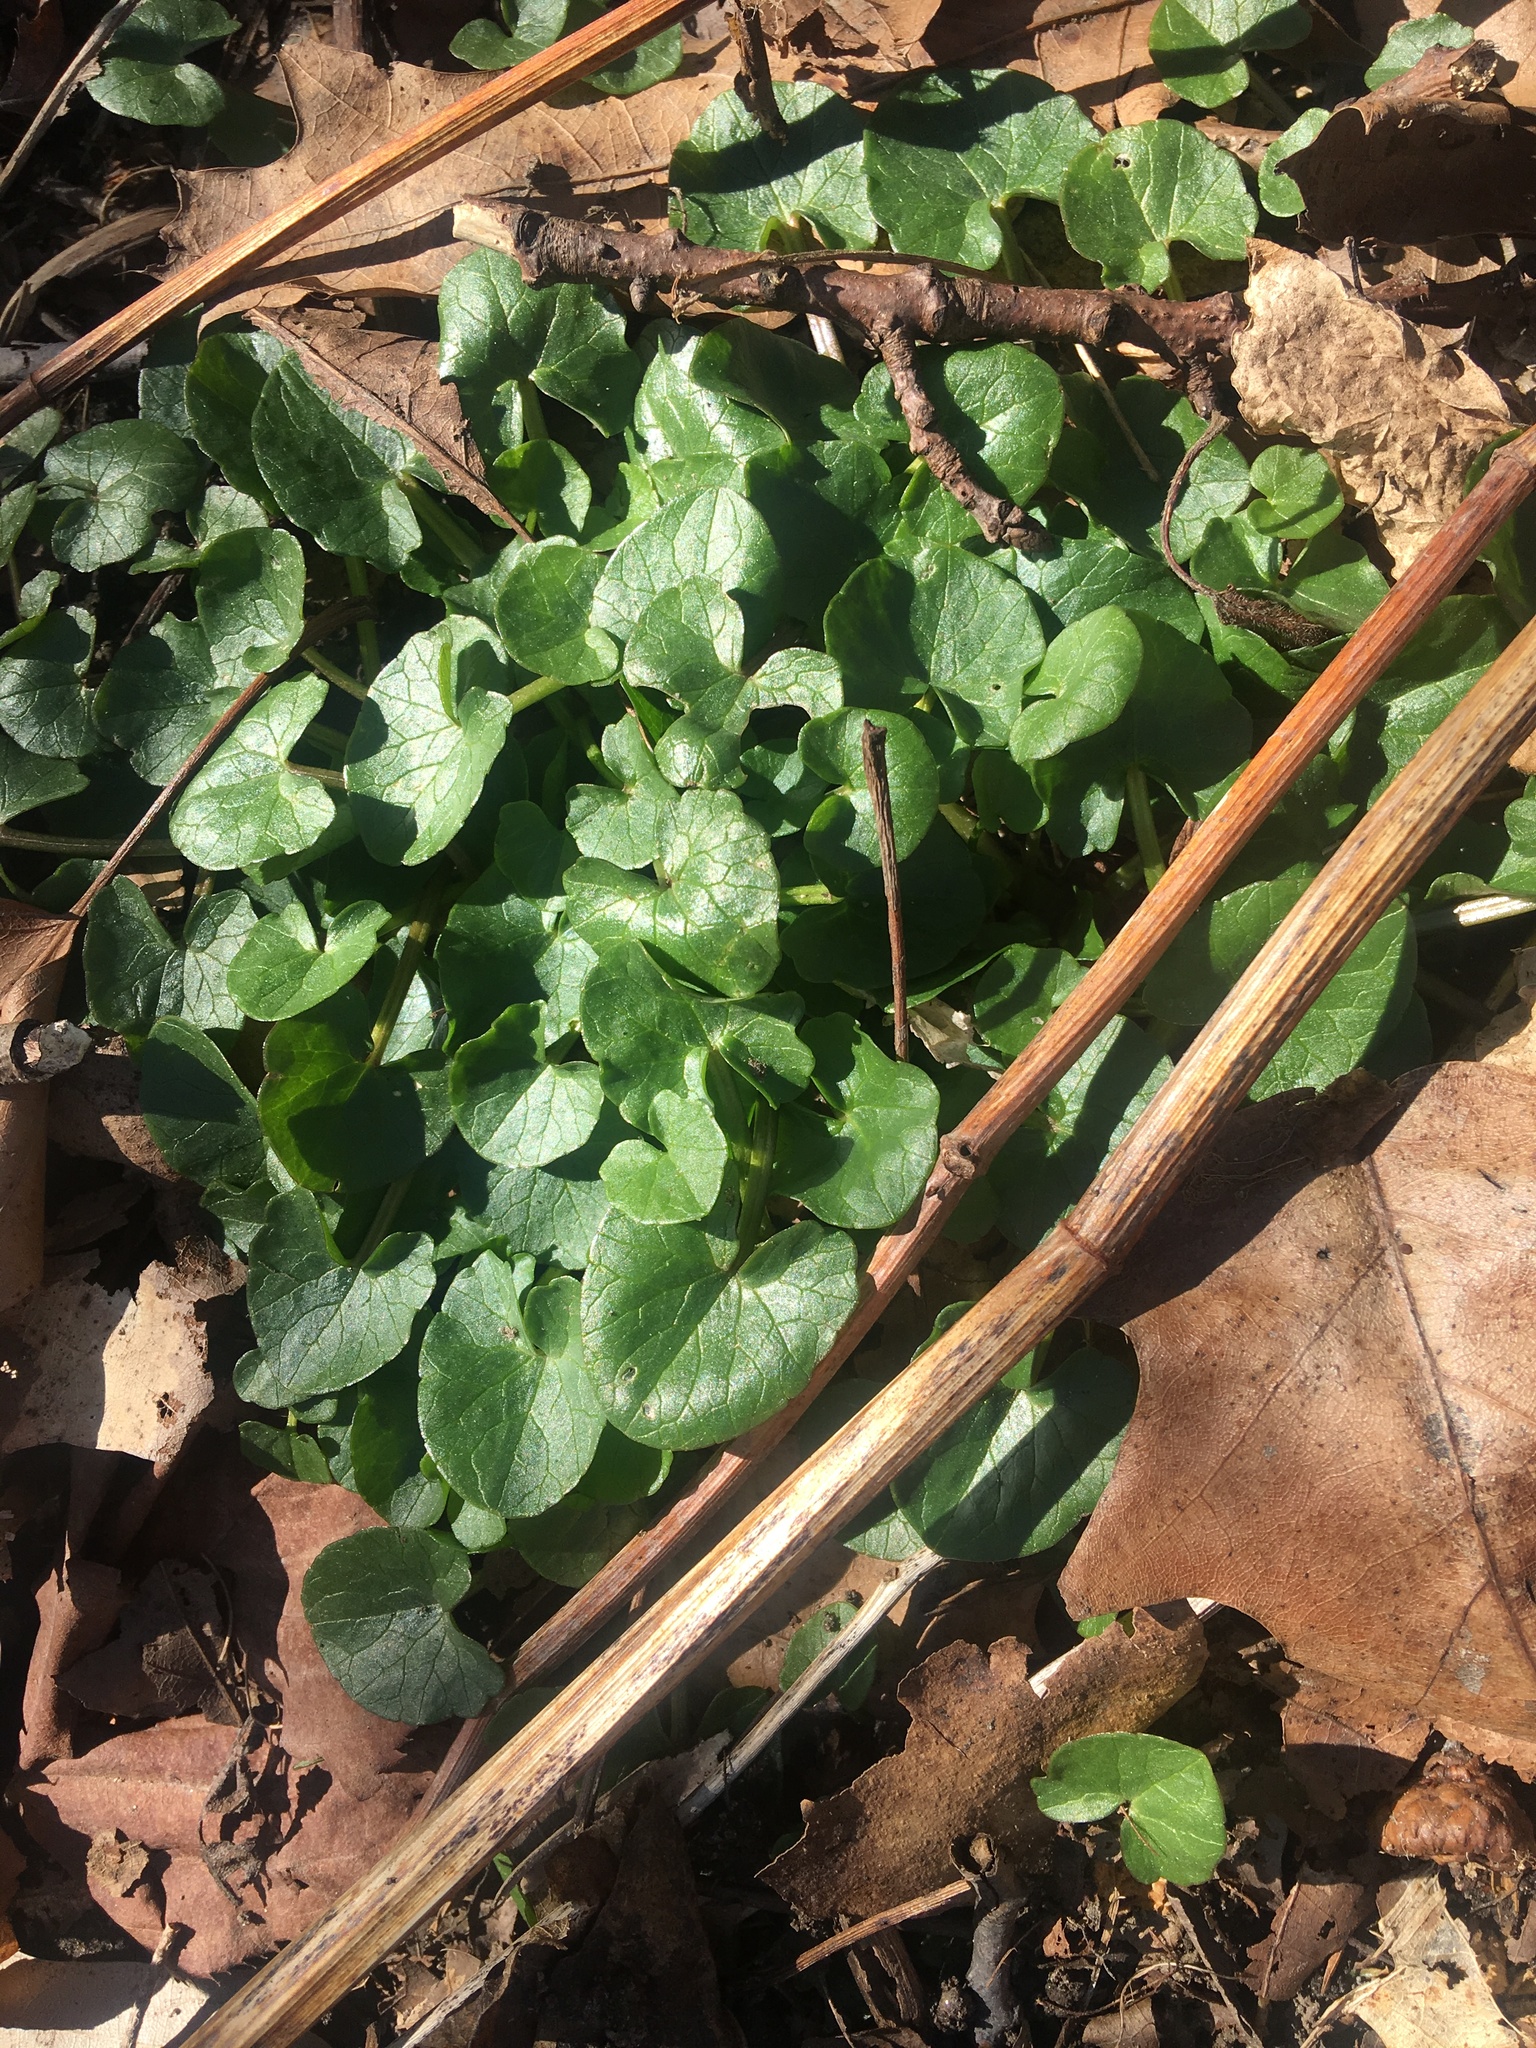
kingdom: Plantae
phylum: Tracheophyta
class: Magnoliopsida
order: Ranunculales
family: Ranunculaceae
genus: Ficaria
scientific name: Ficaria verna
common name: Lesser celandine
